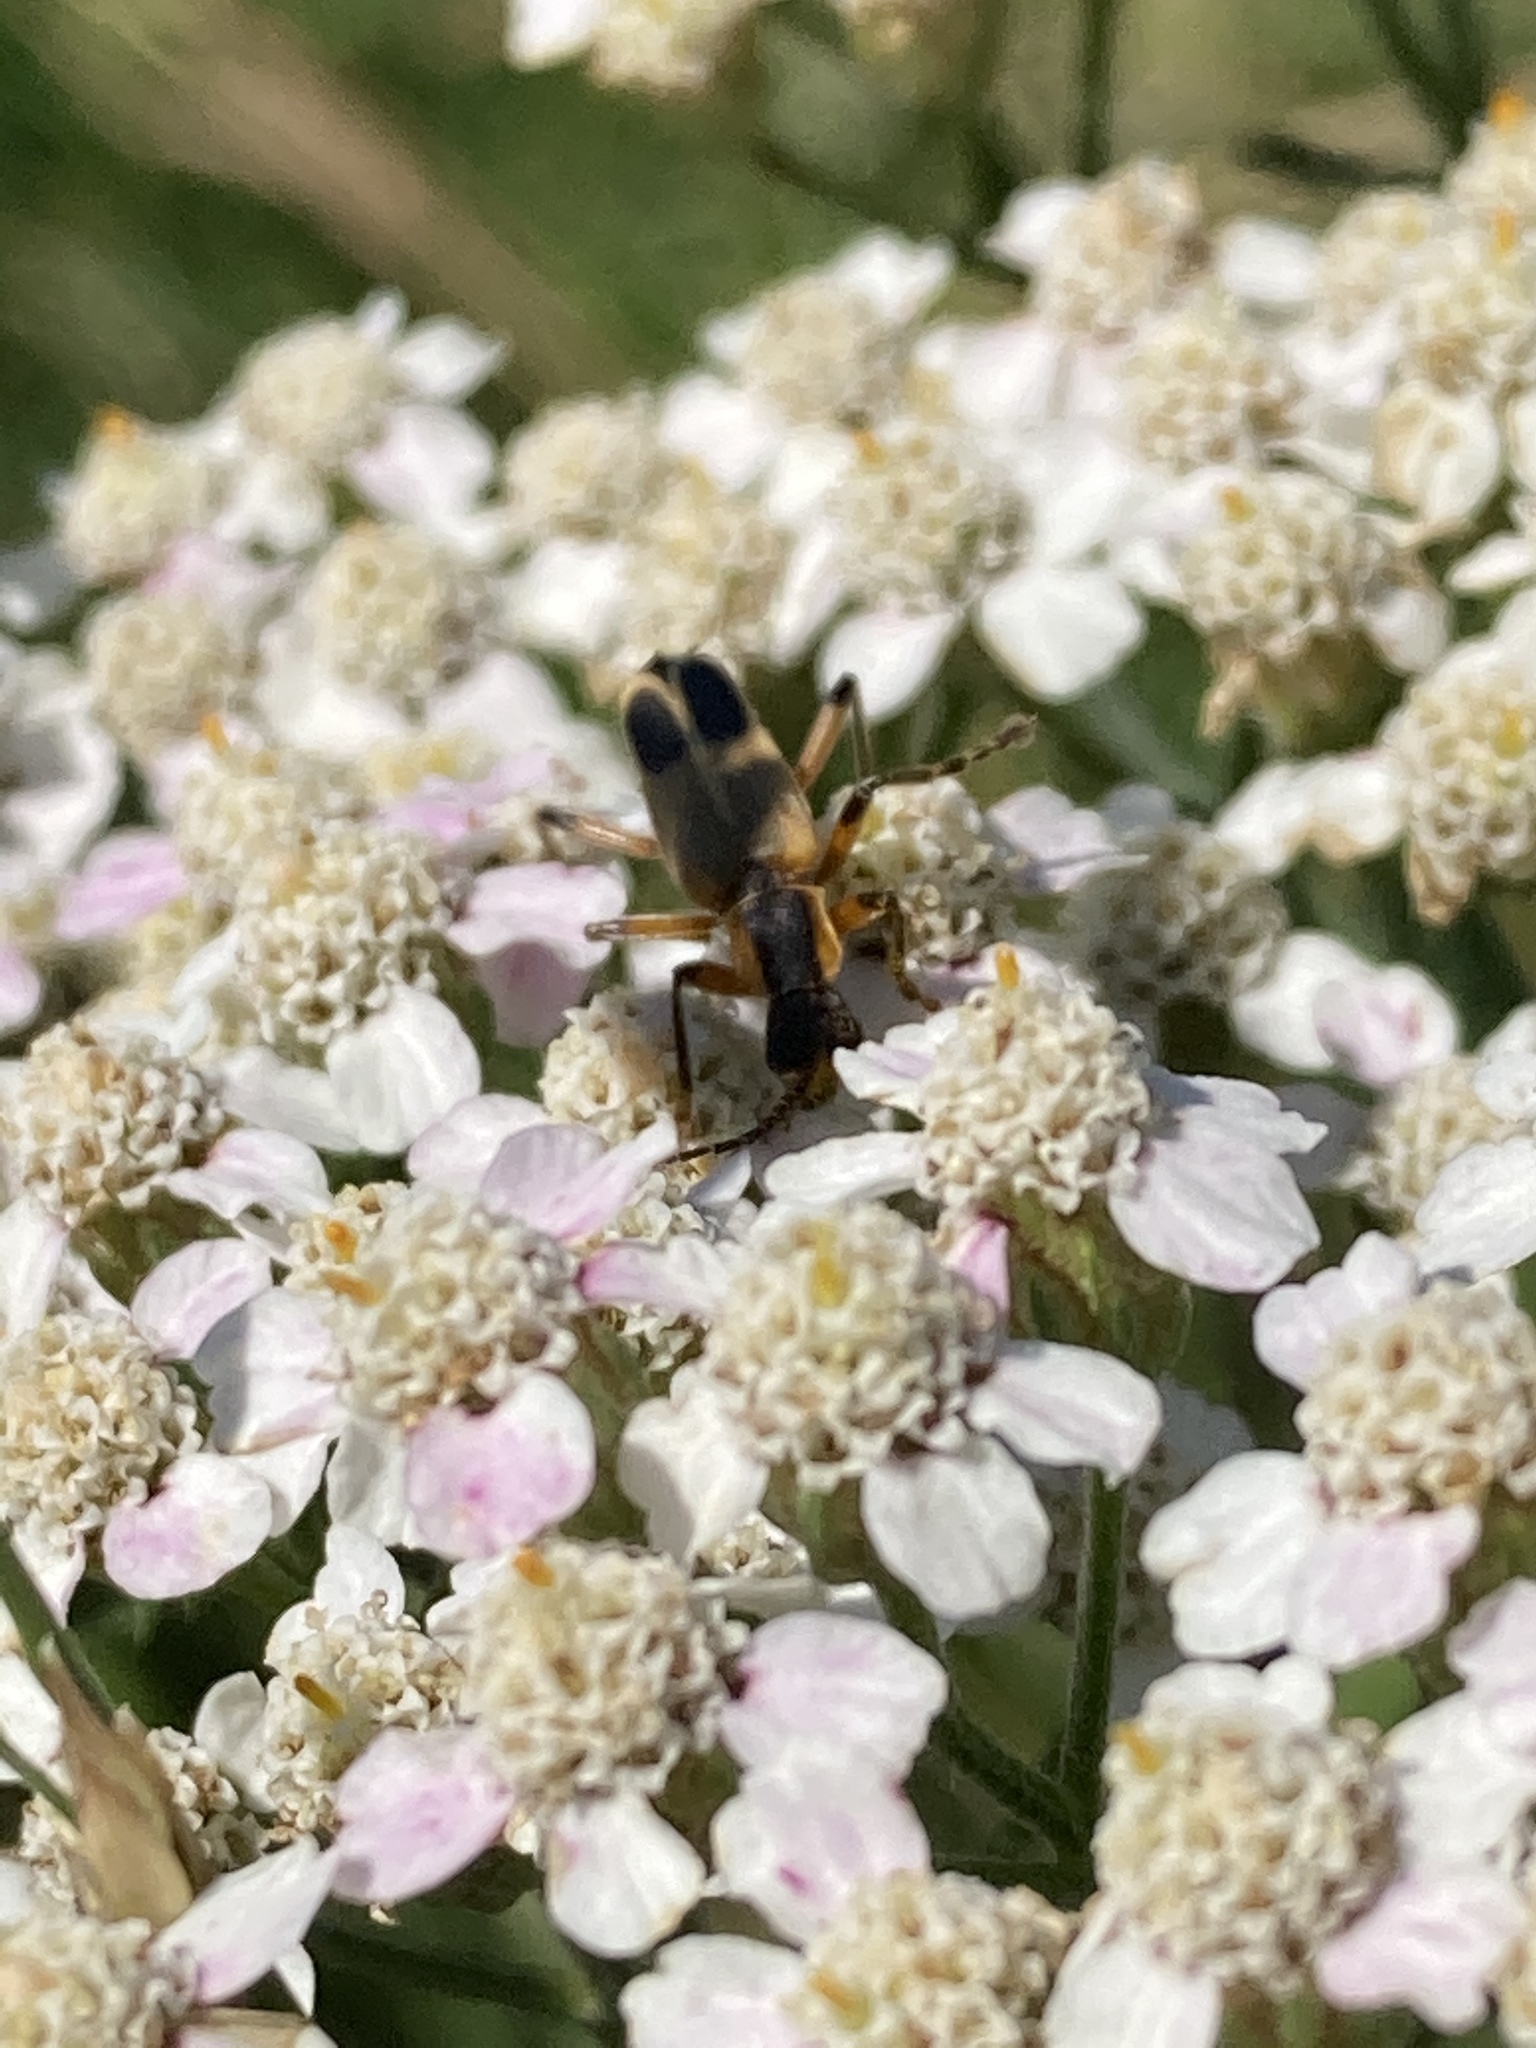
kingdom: Animalia
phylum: Arthropoda
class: Insecta
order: Coleoptera
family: Cantharidae
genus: Chauliognathus
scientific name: Chauliognathus marginatus
